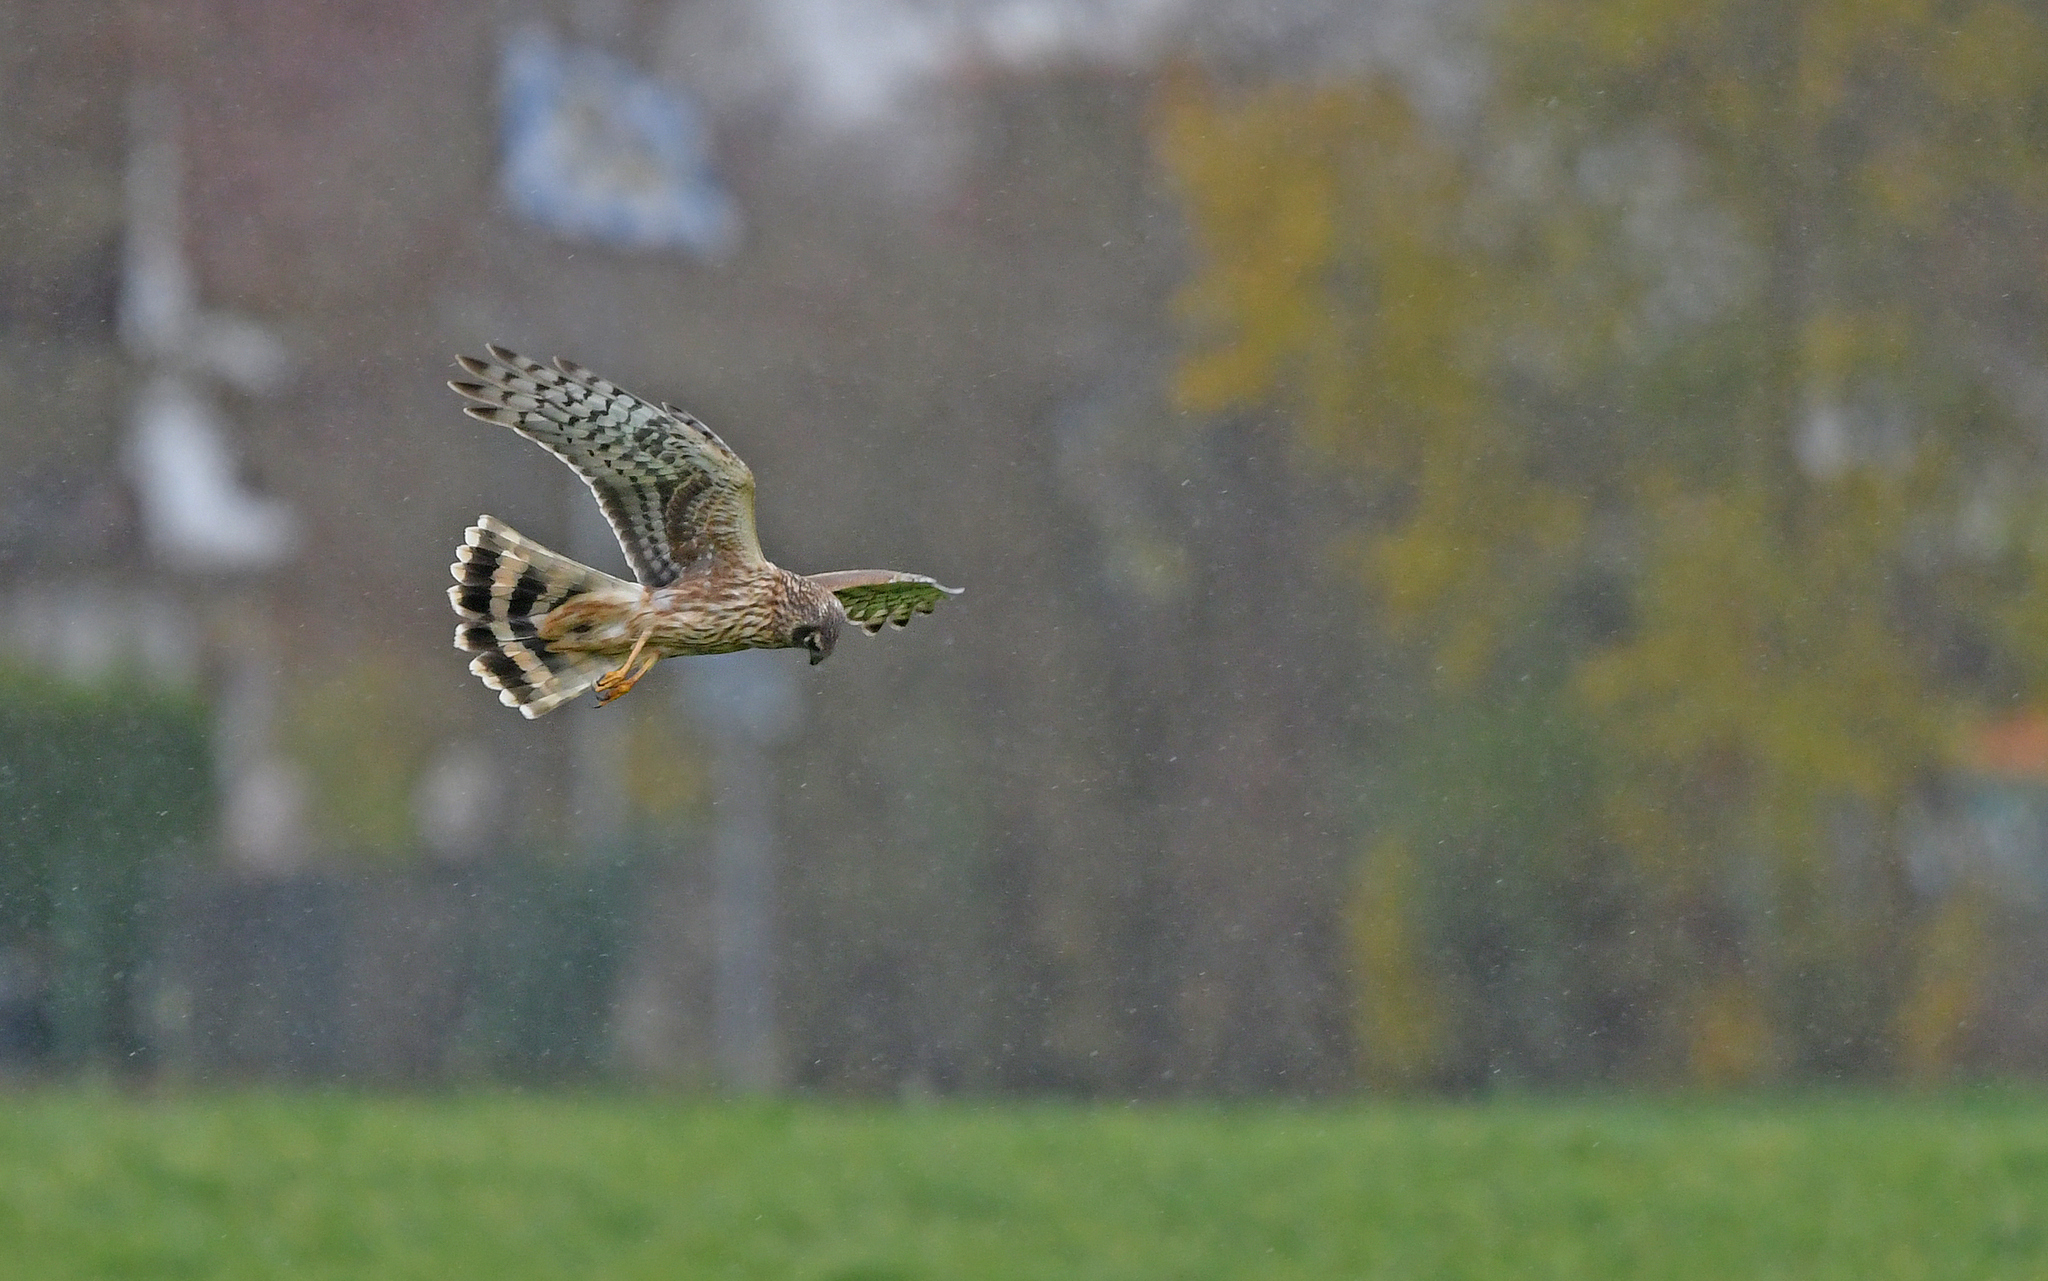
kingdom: Animalia
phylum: Chordata
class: Aves
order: Accipitriformes
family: Accipitridae
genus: Circus
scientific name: Circus cyaneus
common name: Hen harrier
